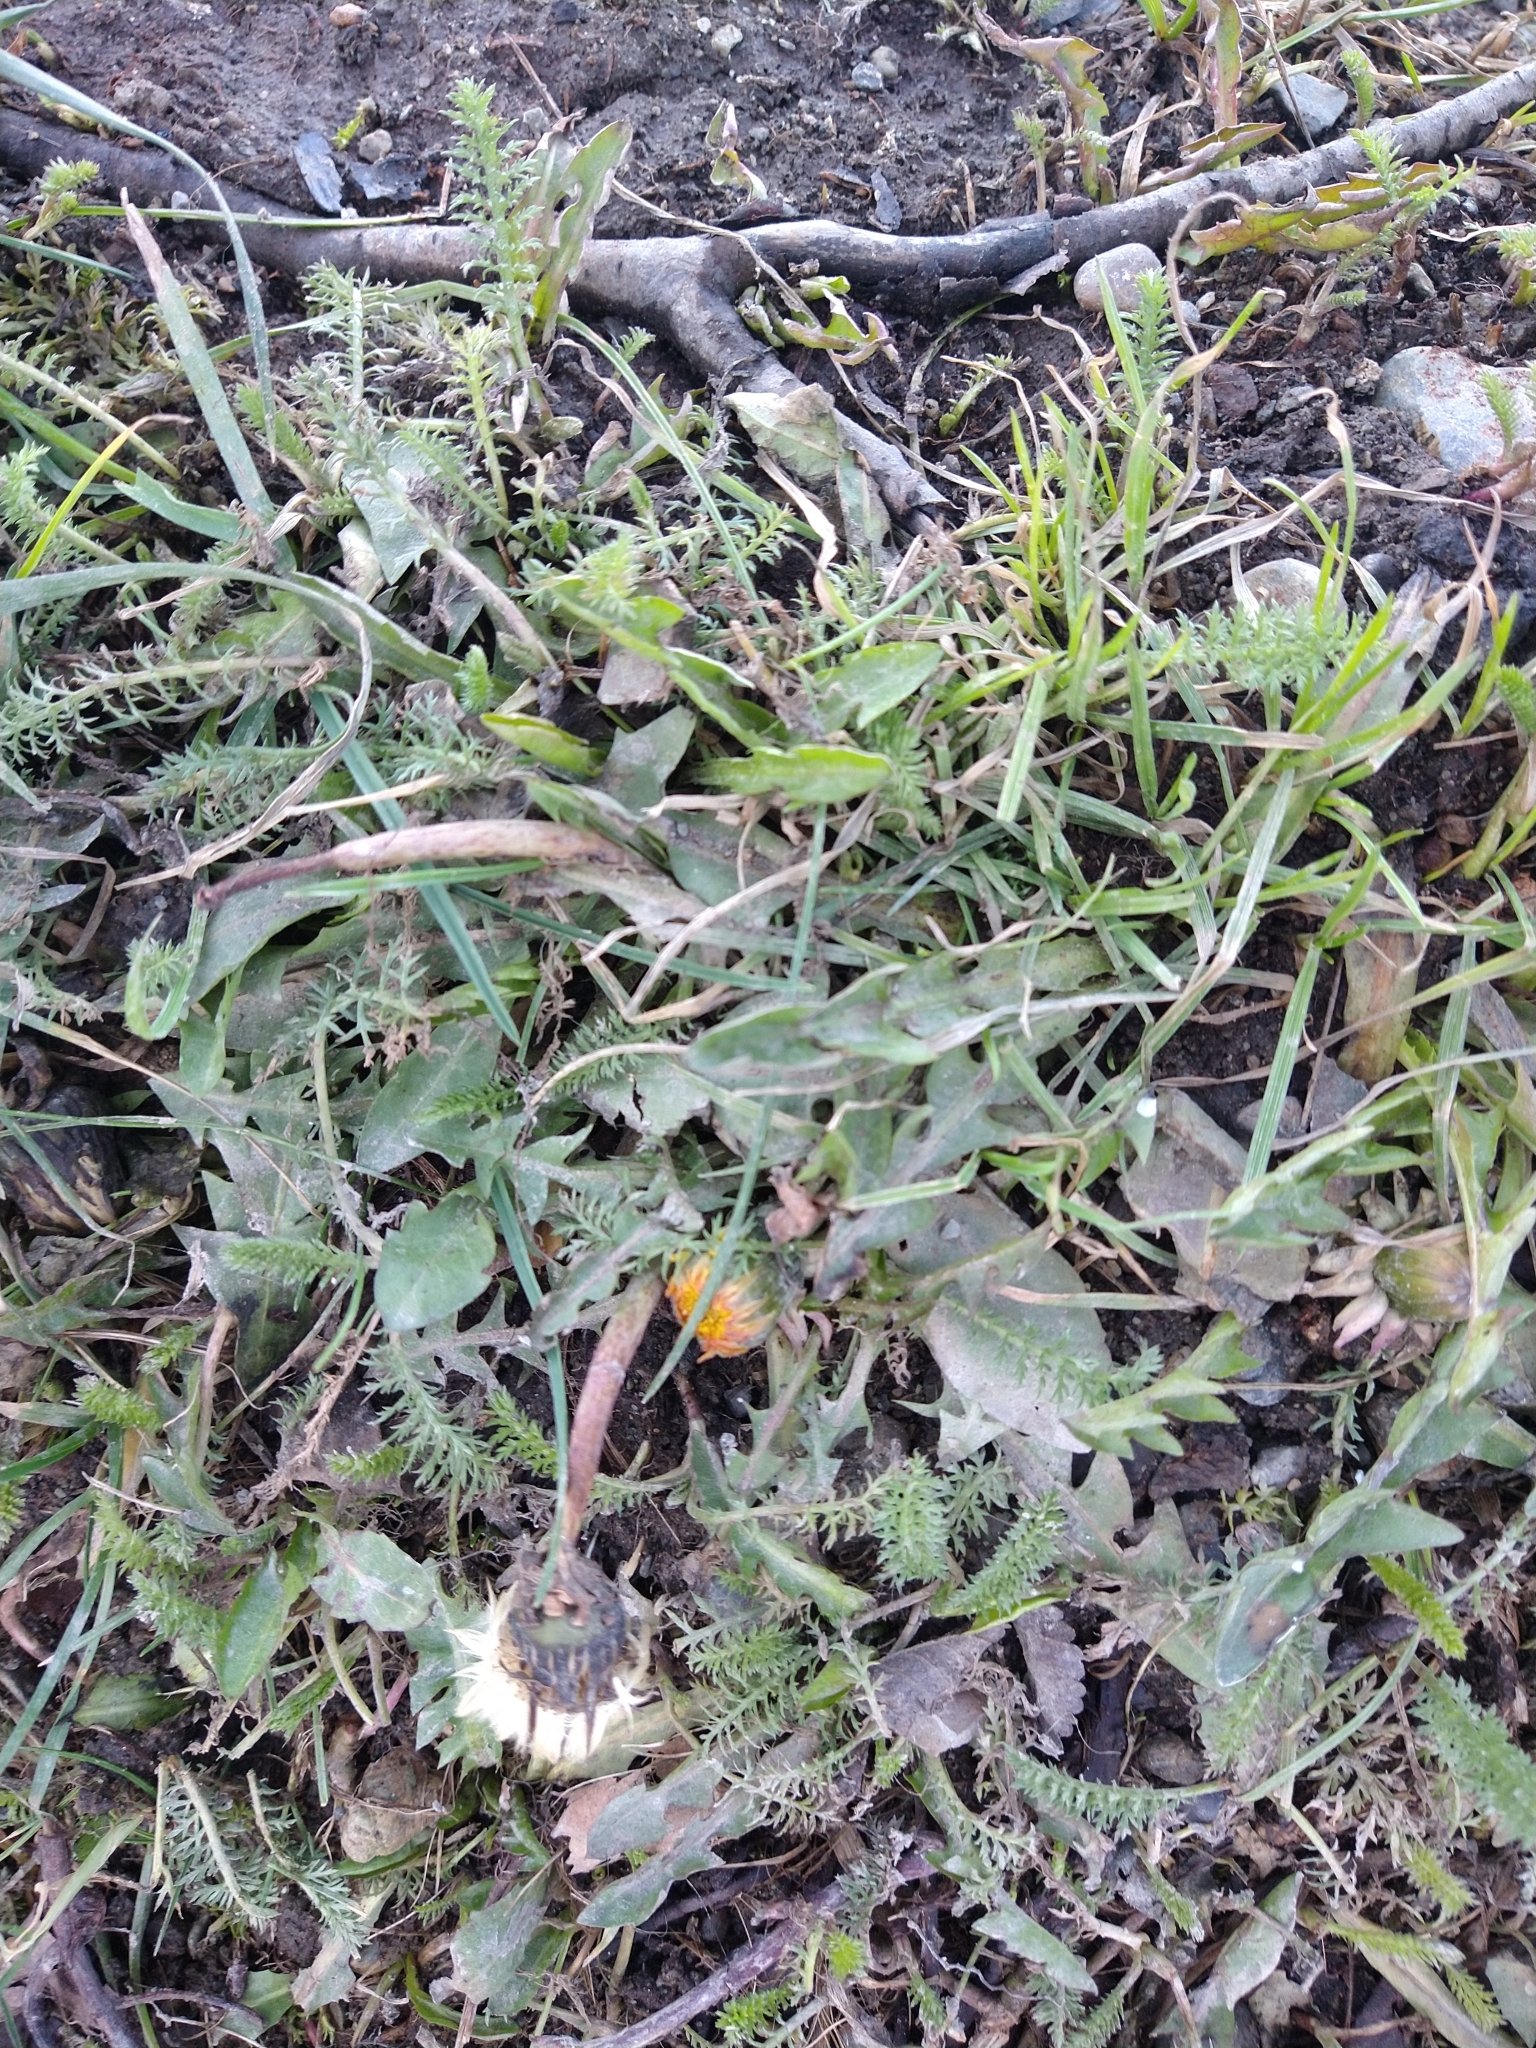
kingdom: Plantae
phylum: Tracheophyta
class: Magnoliopsida
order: Asterales
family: Asteraceae
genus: Taraxacum
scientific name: Taraxacum officinale
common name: Common dandelion
